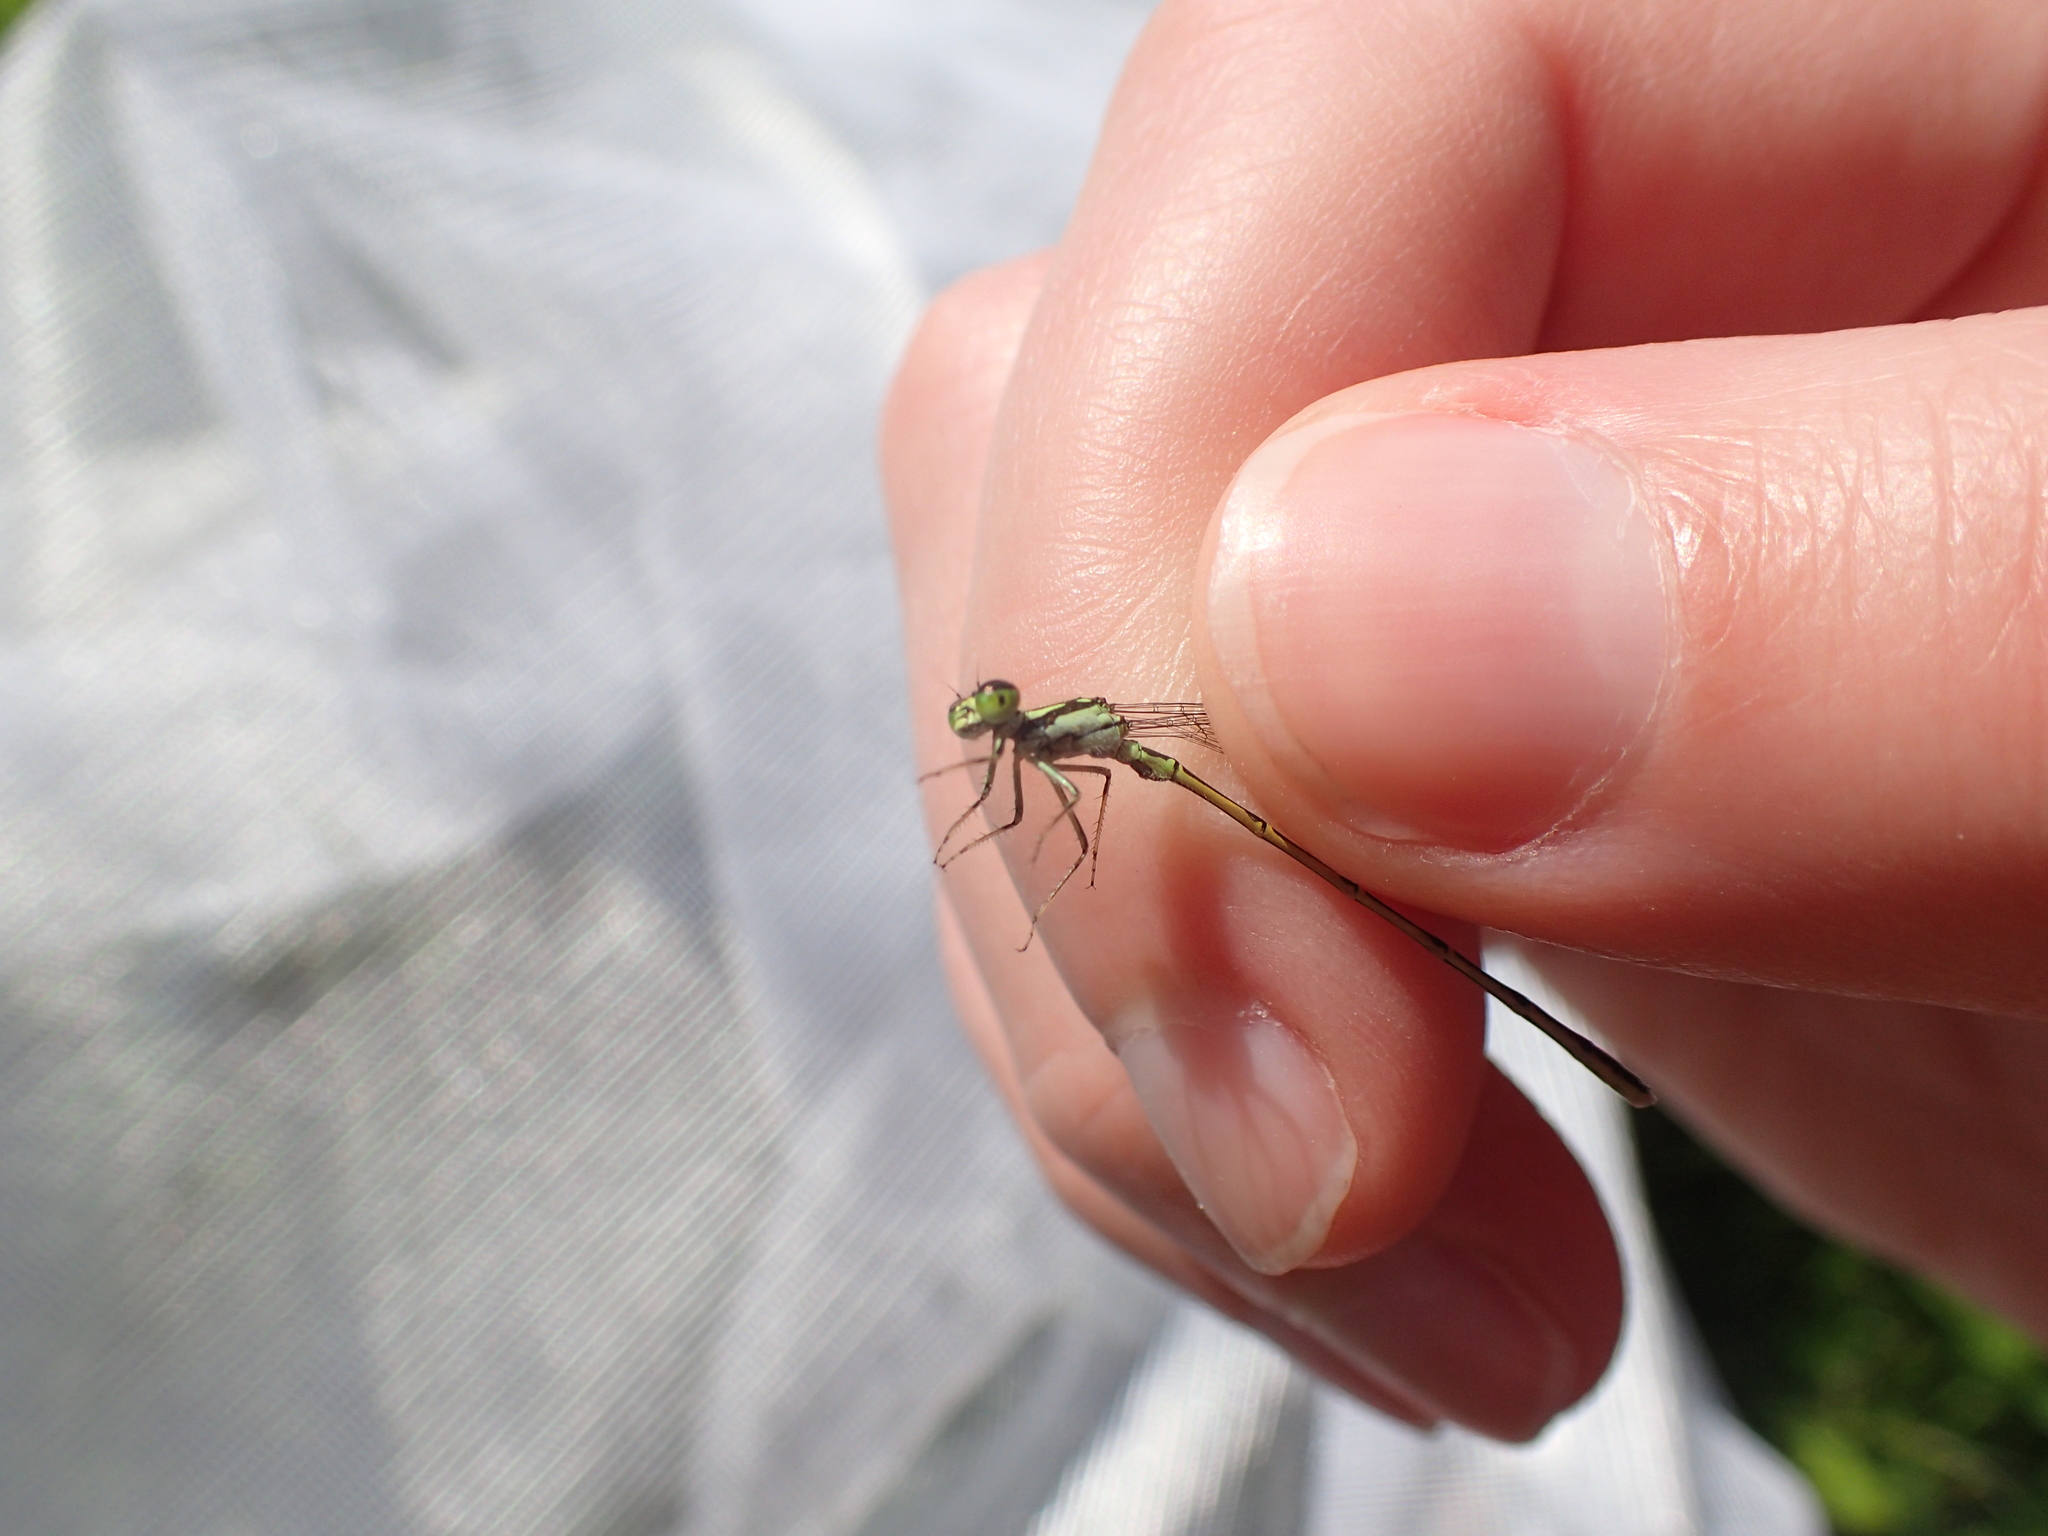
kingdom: Animalia
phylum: Arthropoda
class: Insecta
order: Odonata
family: Coenagrionidae
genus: Ischnura
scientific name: Ischnura posita
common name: Fragile forktail
